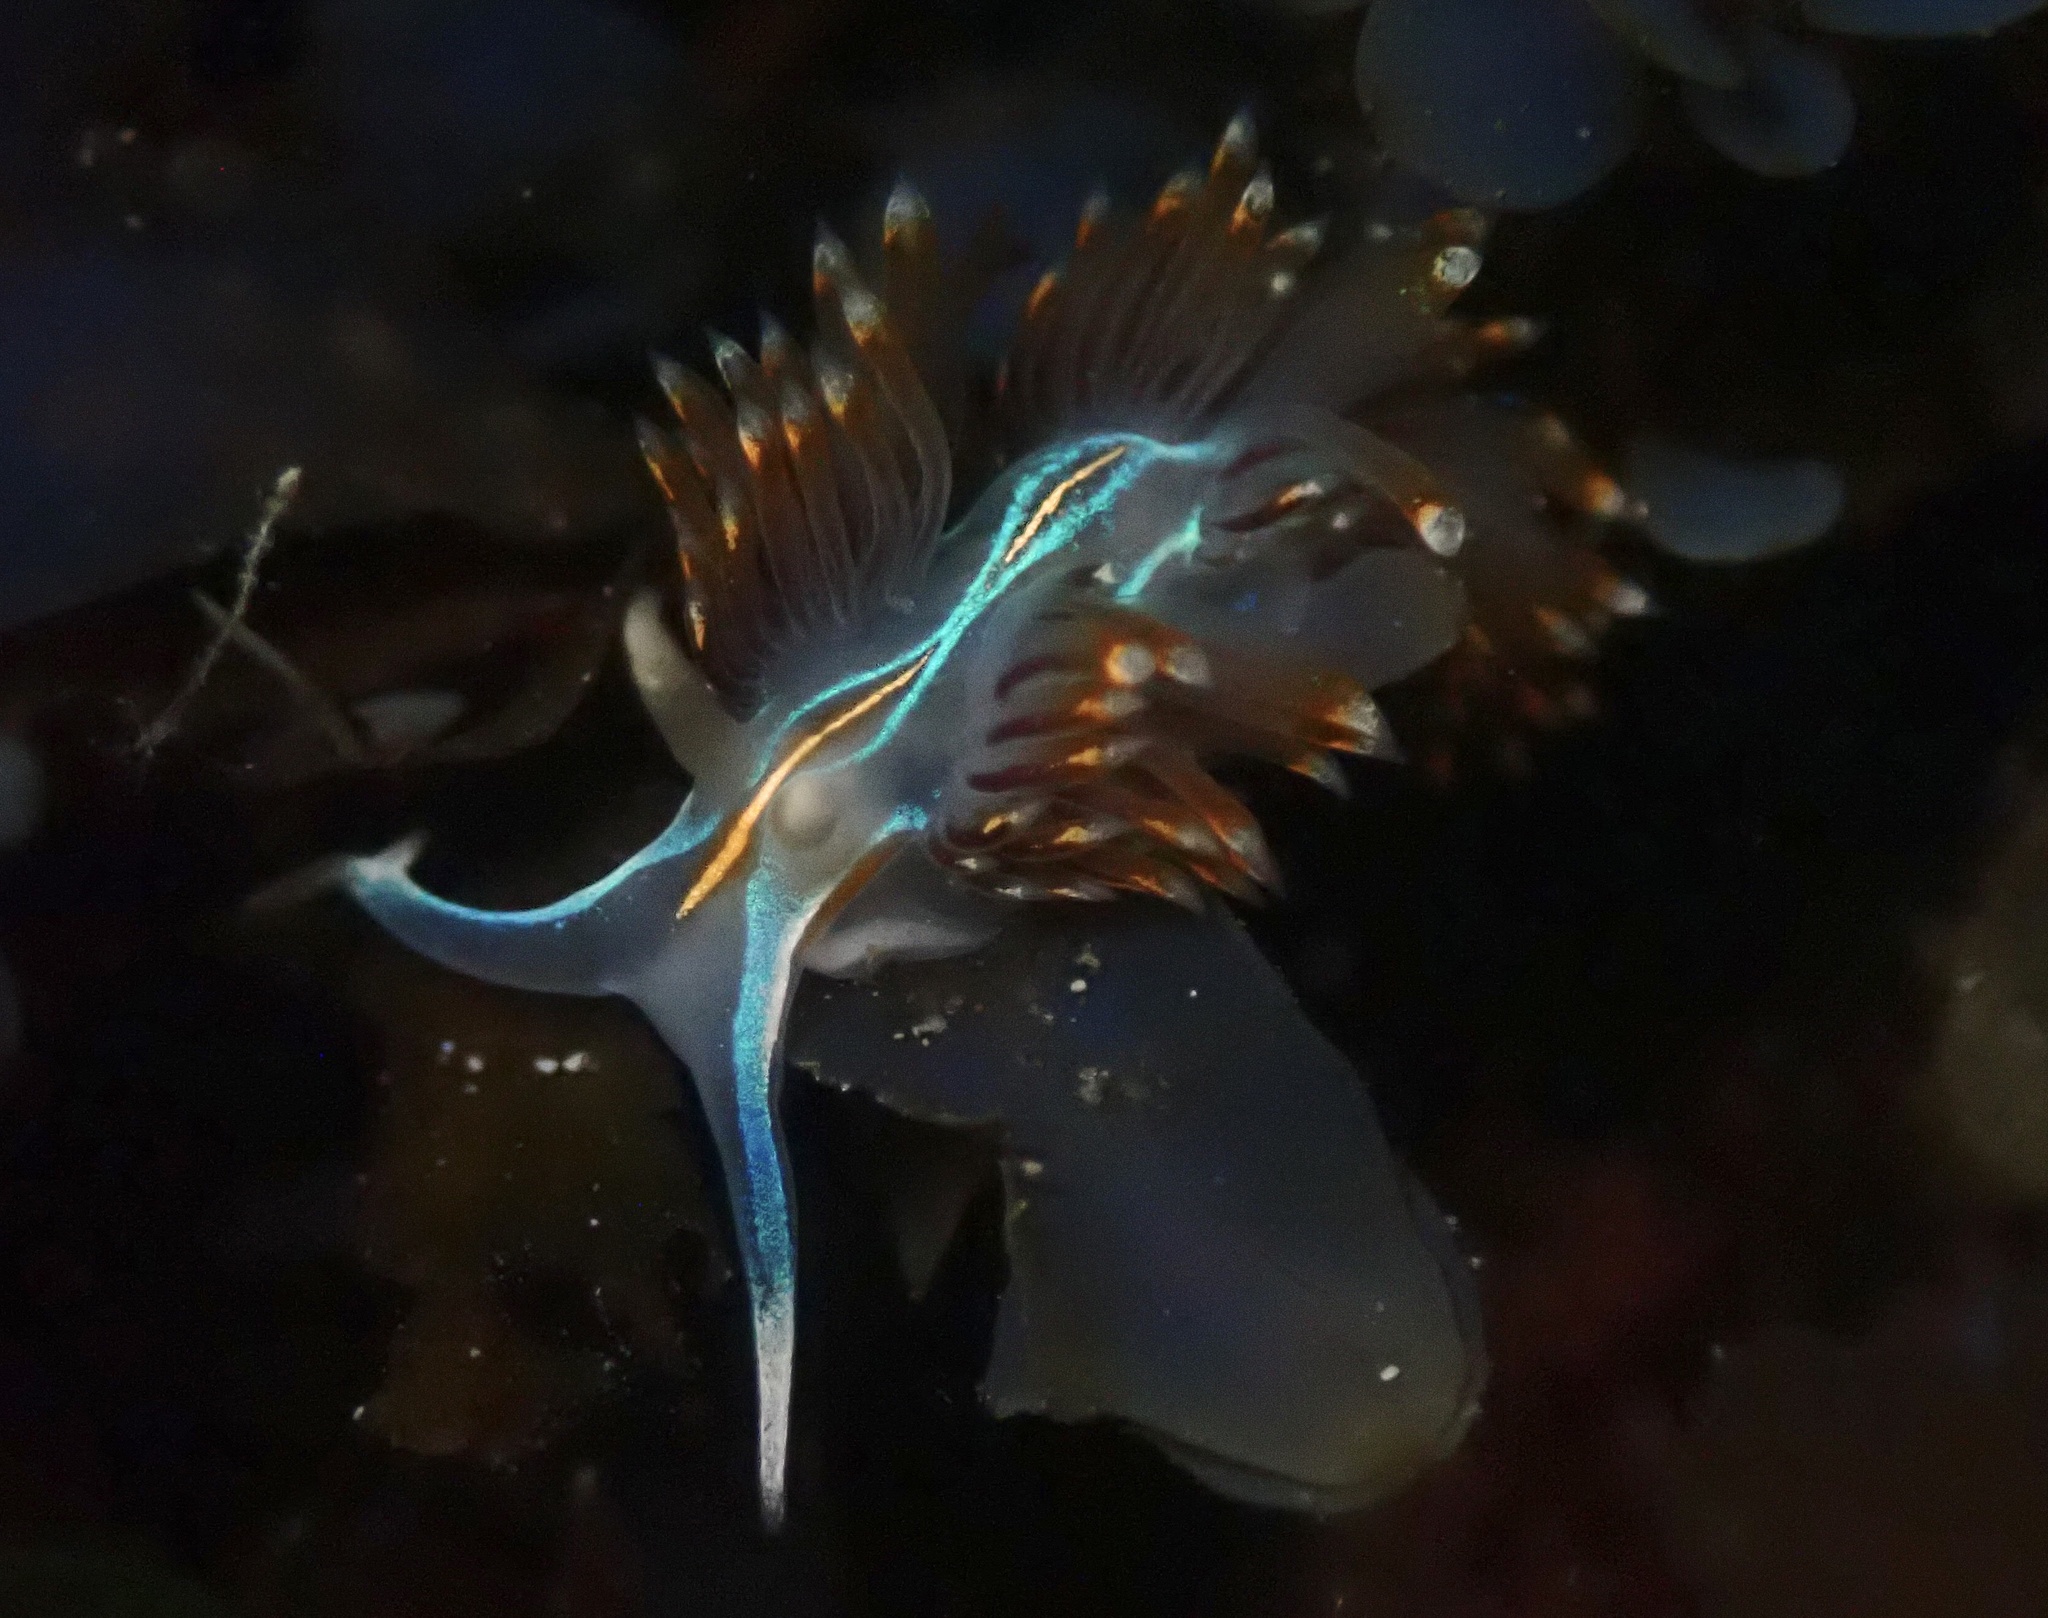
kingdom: Animalia
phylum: Mollusca
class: Gastropoda
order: Nudibranchia
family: Myrrhinidae
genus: Hermissenda
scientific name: Hermissenda opalescens
